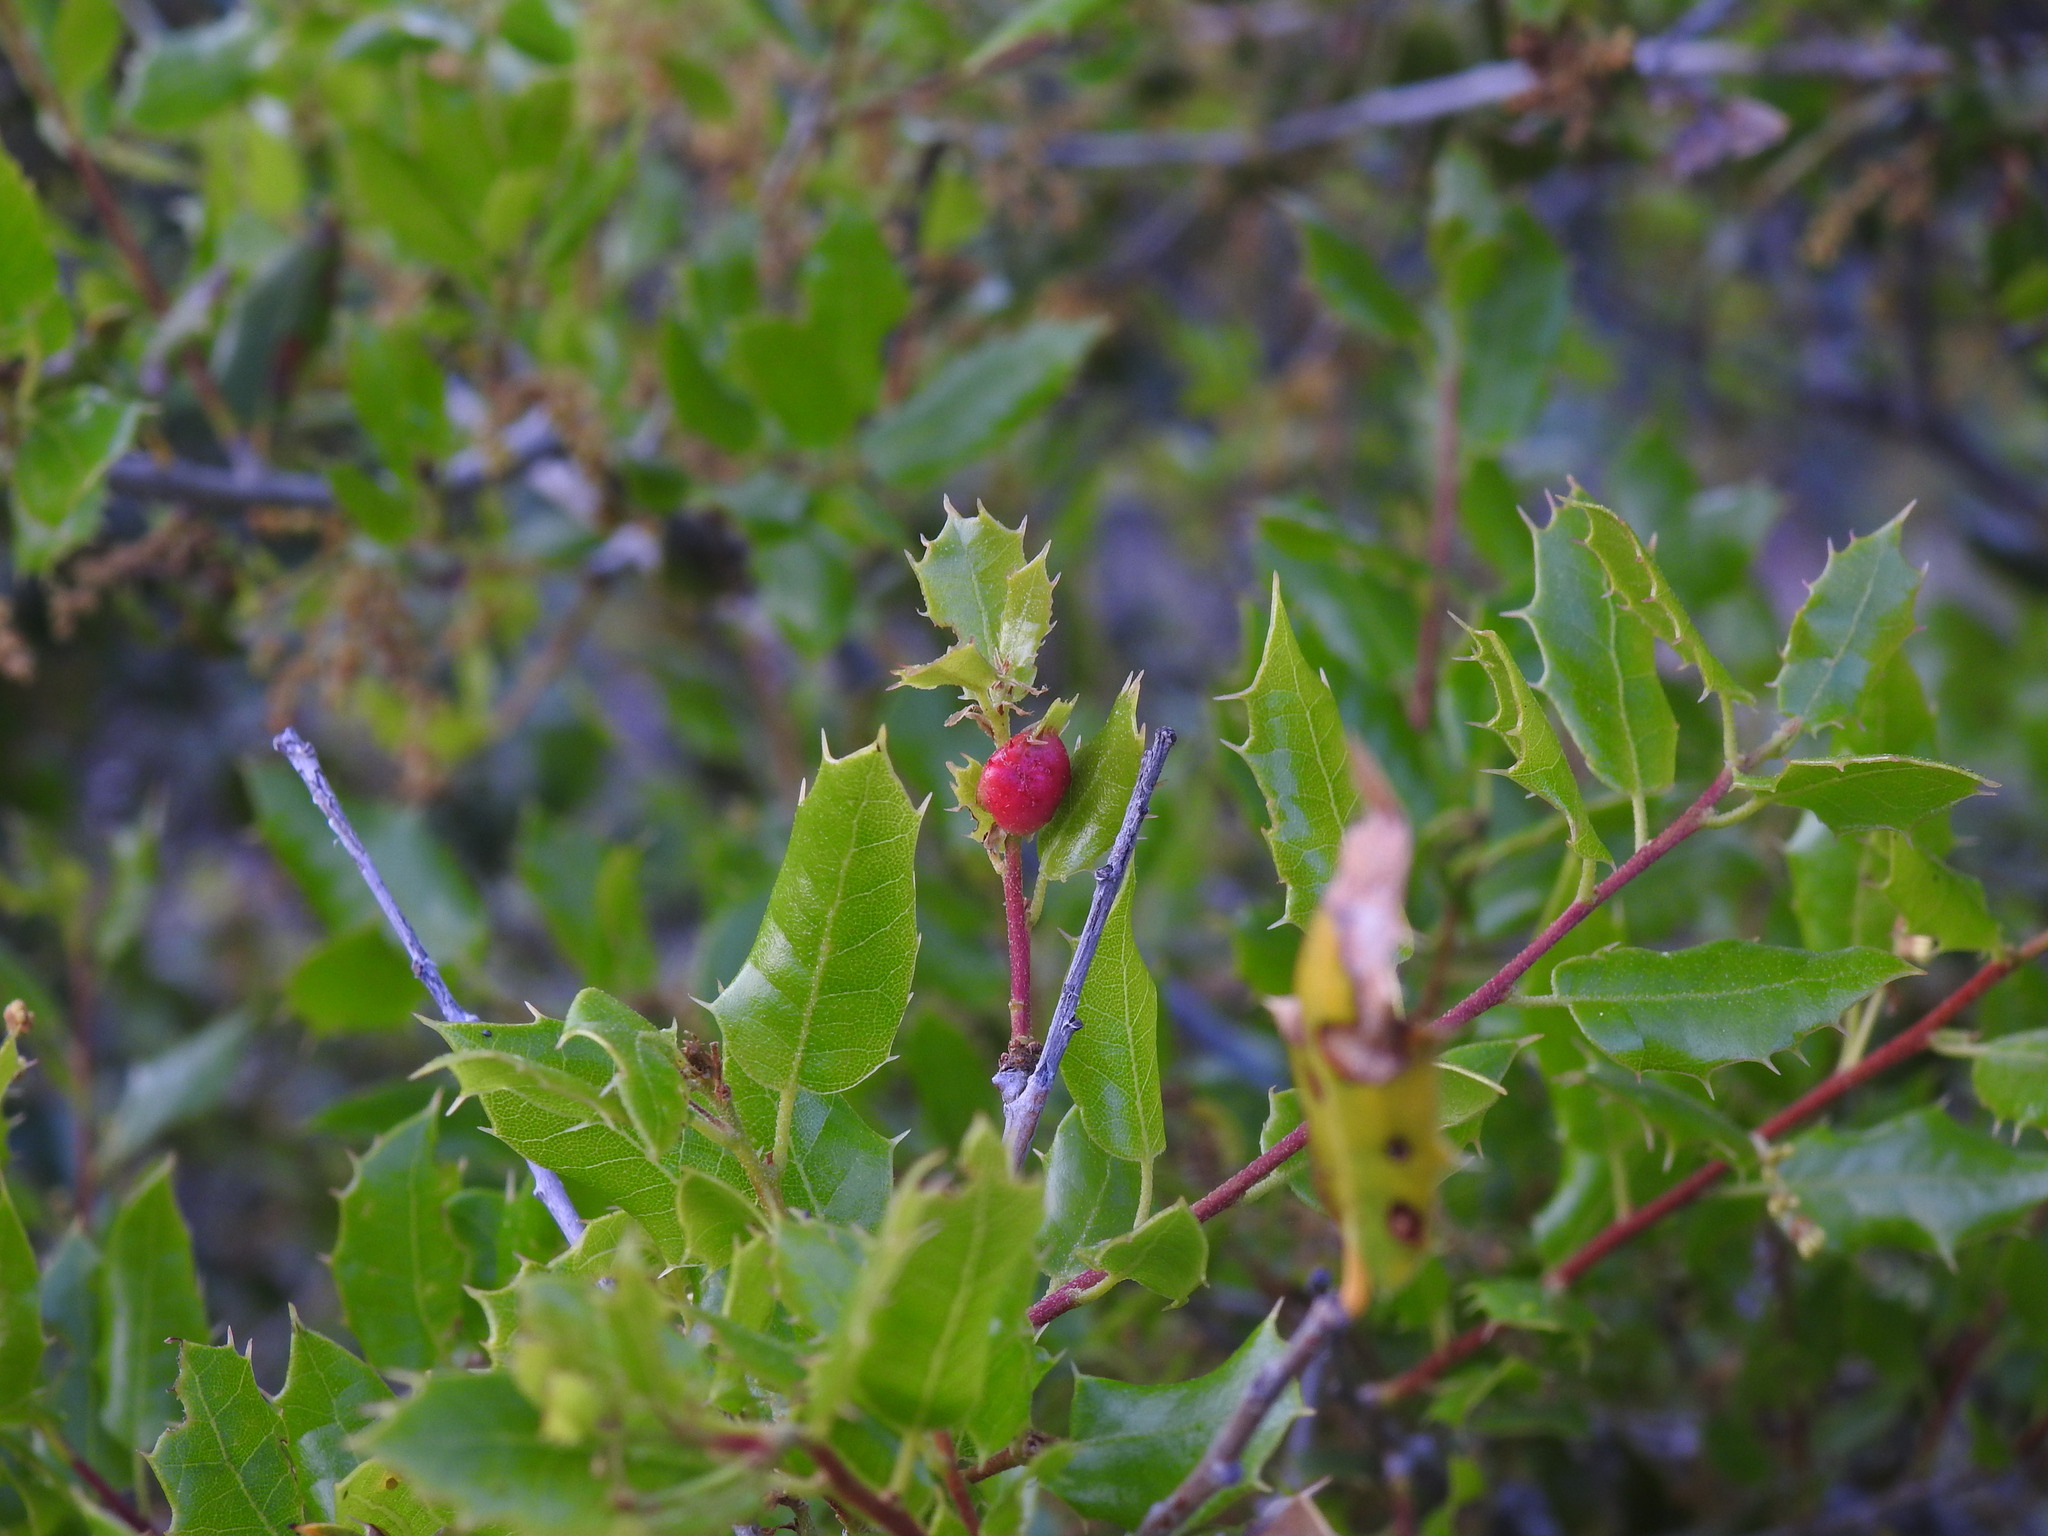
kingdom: Animalia
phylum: Arthropoda
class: Insecta
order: Hymenoptera
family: Cynipidae
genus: Plagiotrochus
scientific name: Plagiotrochus quercusilicis
